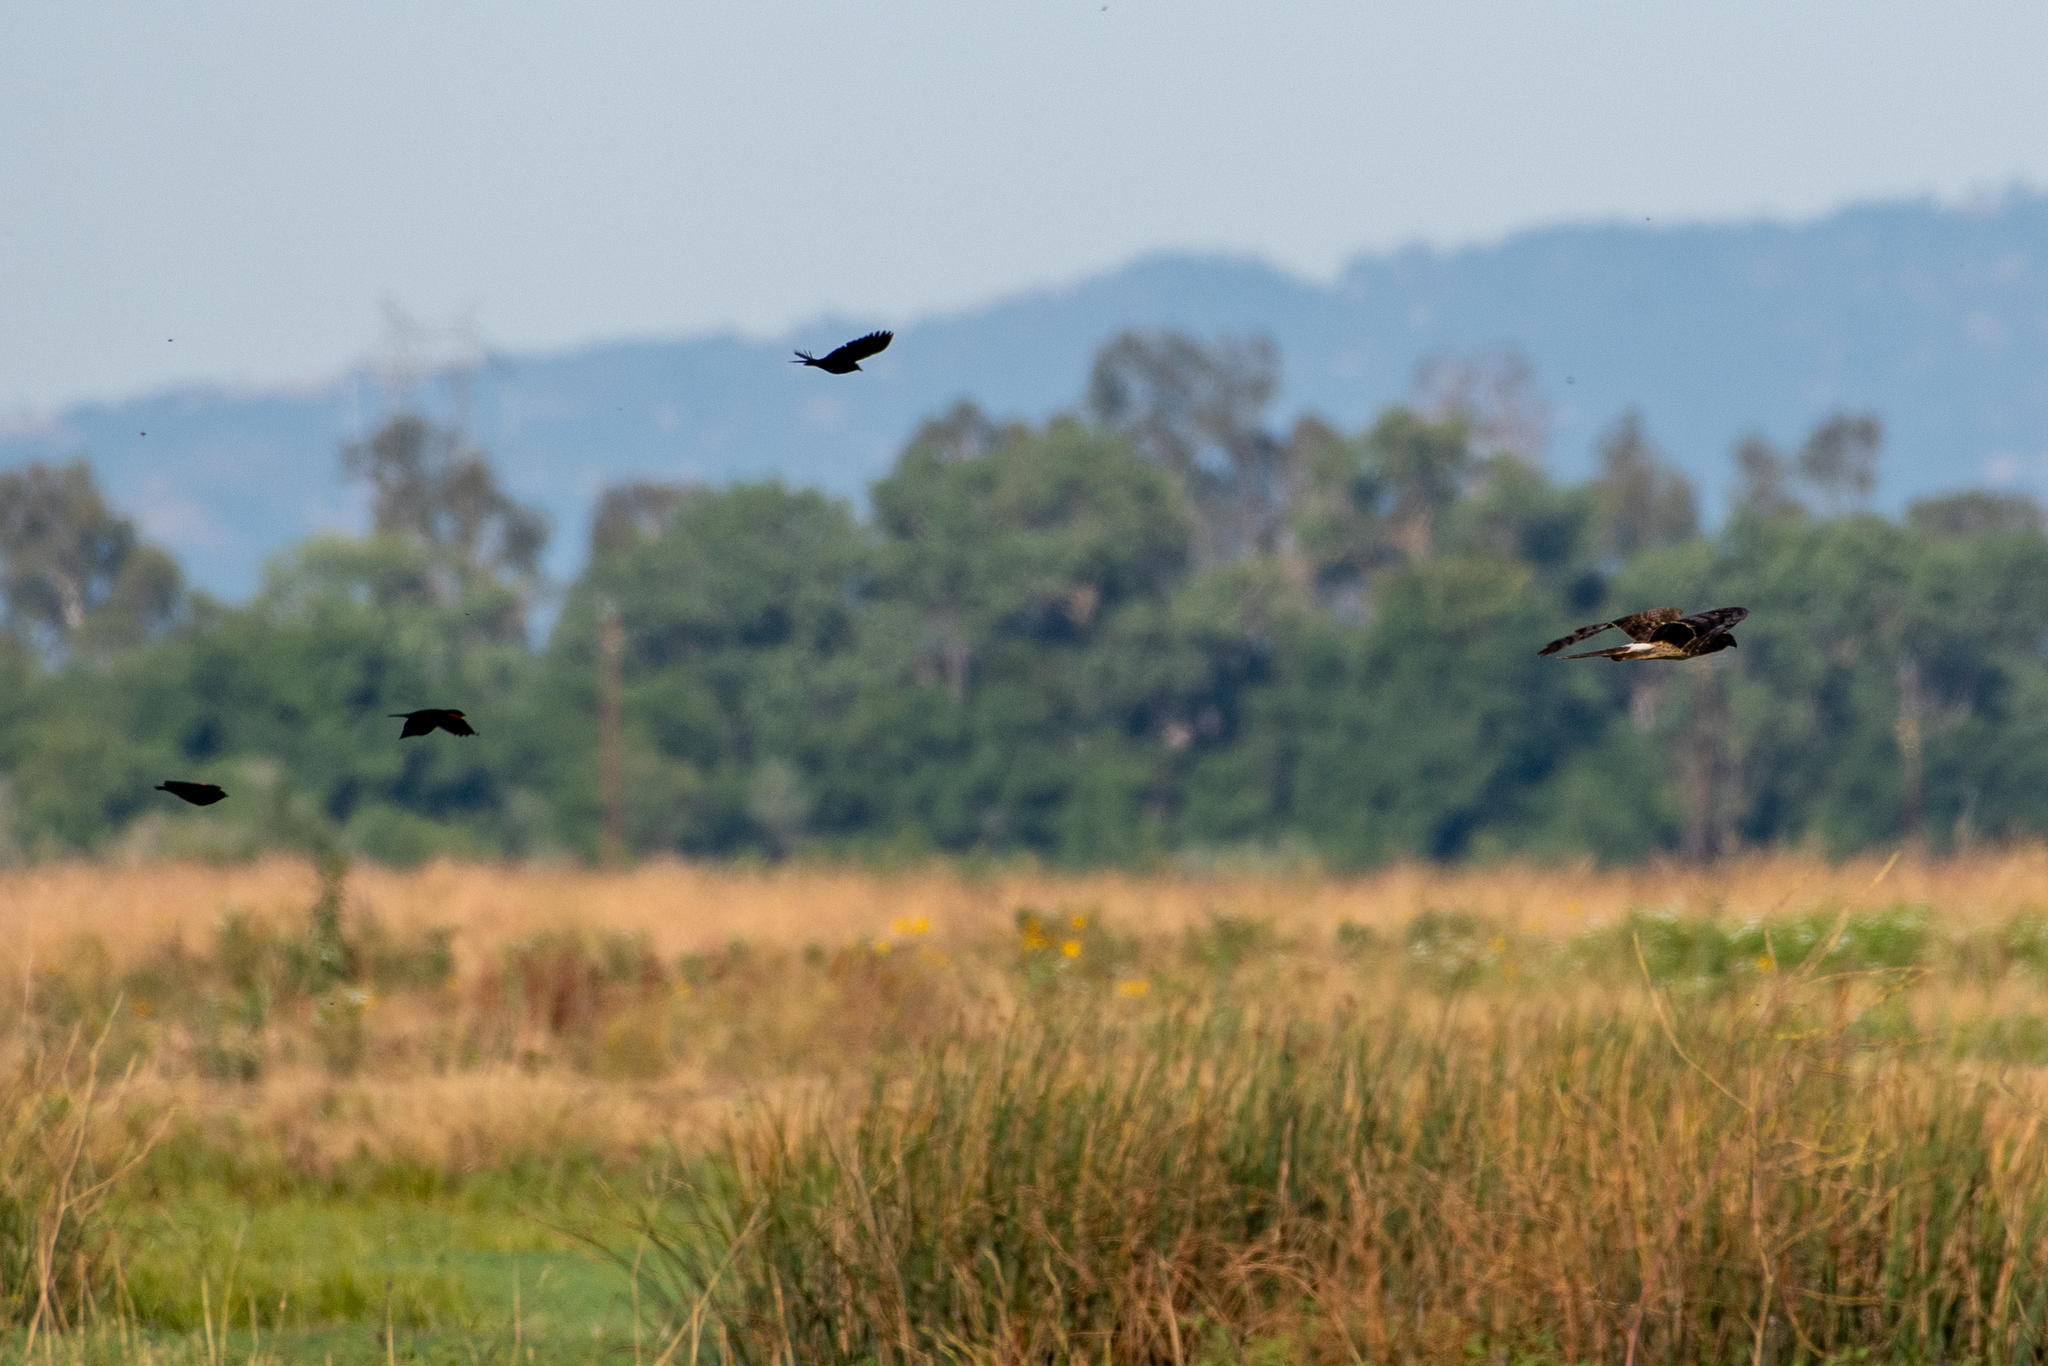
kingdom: Animalia
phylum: Chordata
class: Aves
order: Accipitriformes
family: Accipitridae
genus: Circus
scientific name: Circus cyaneus
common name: Hen harrier
